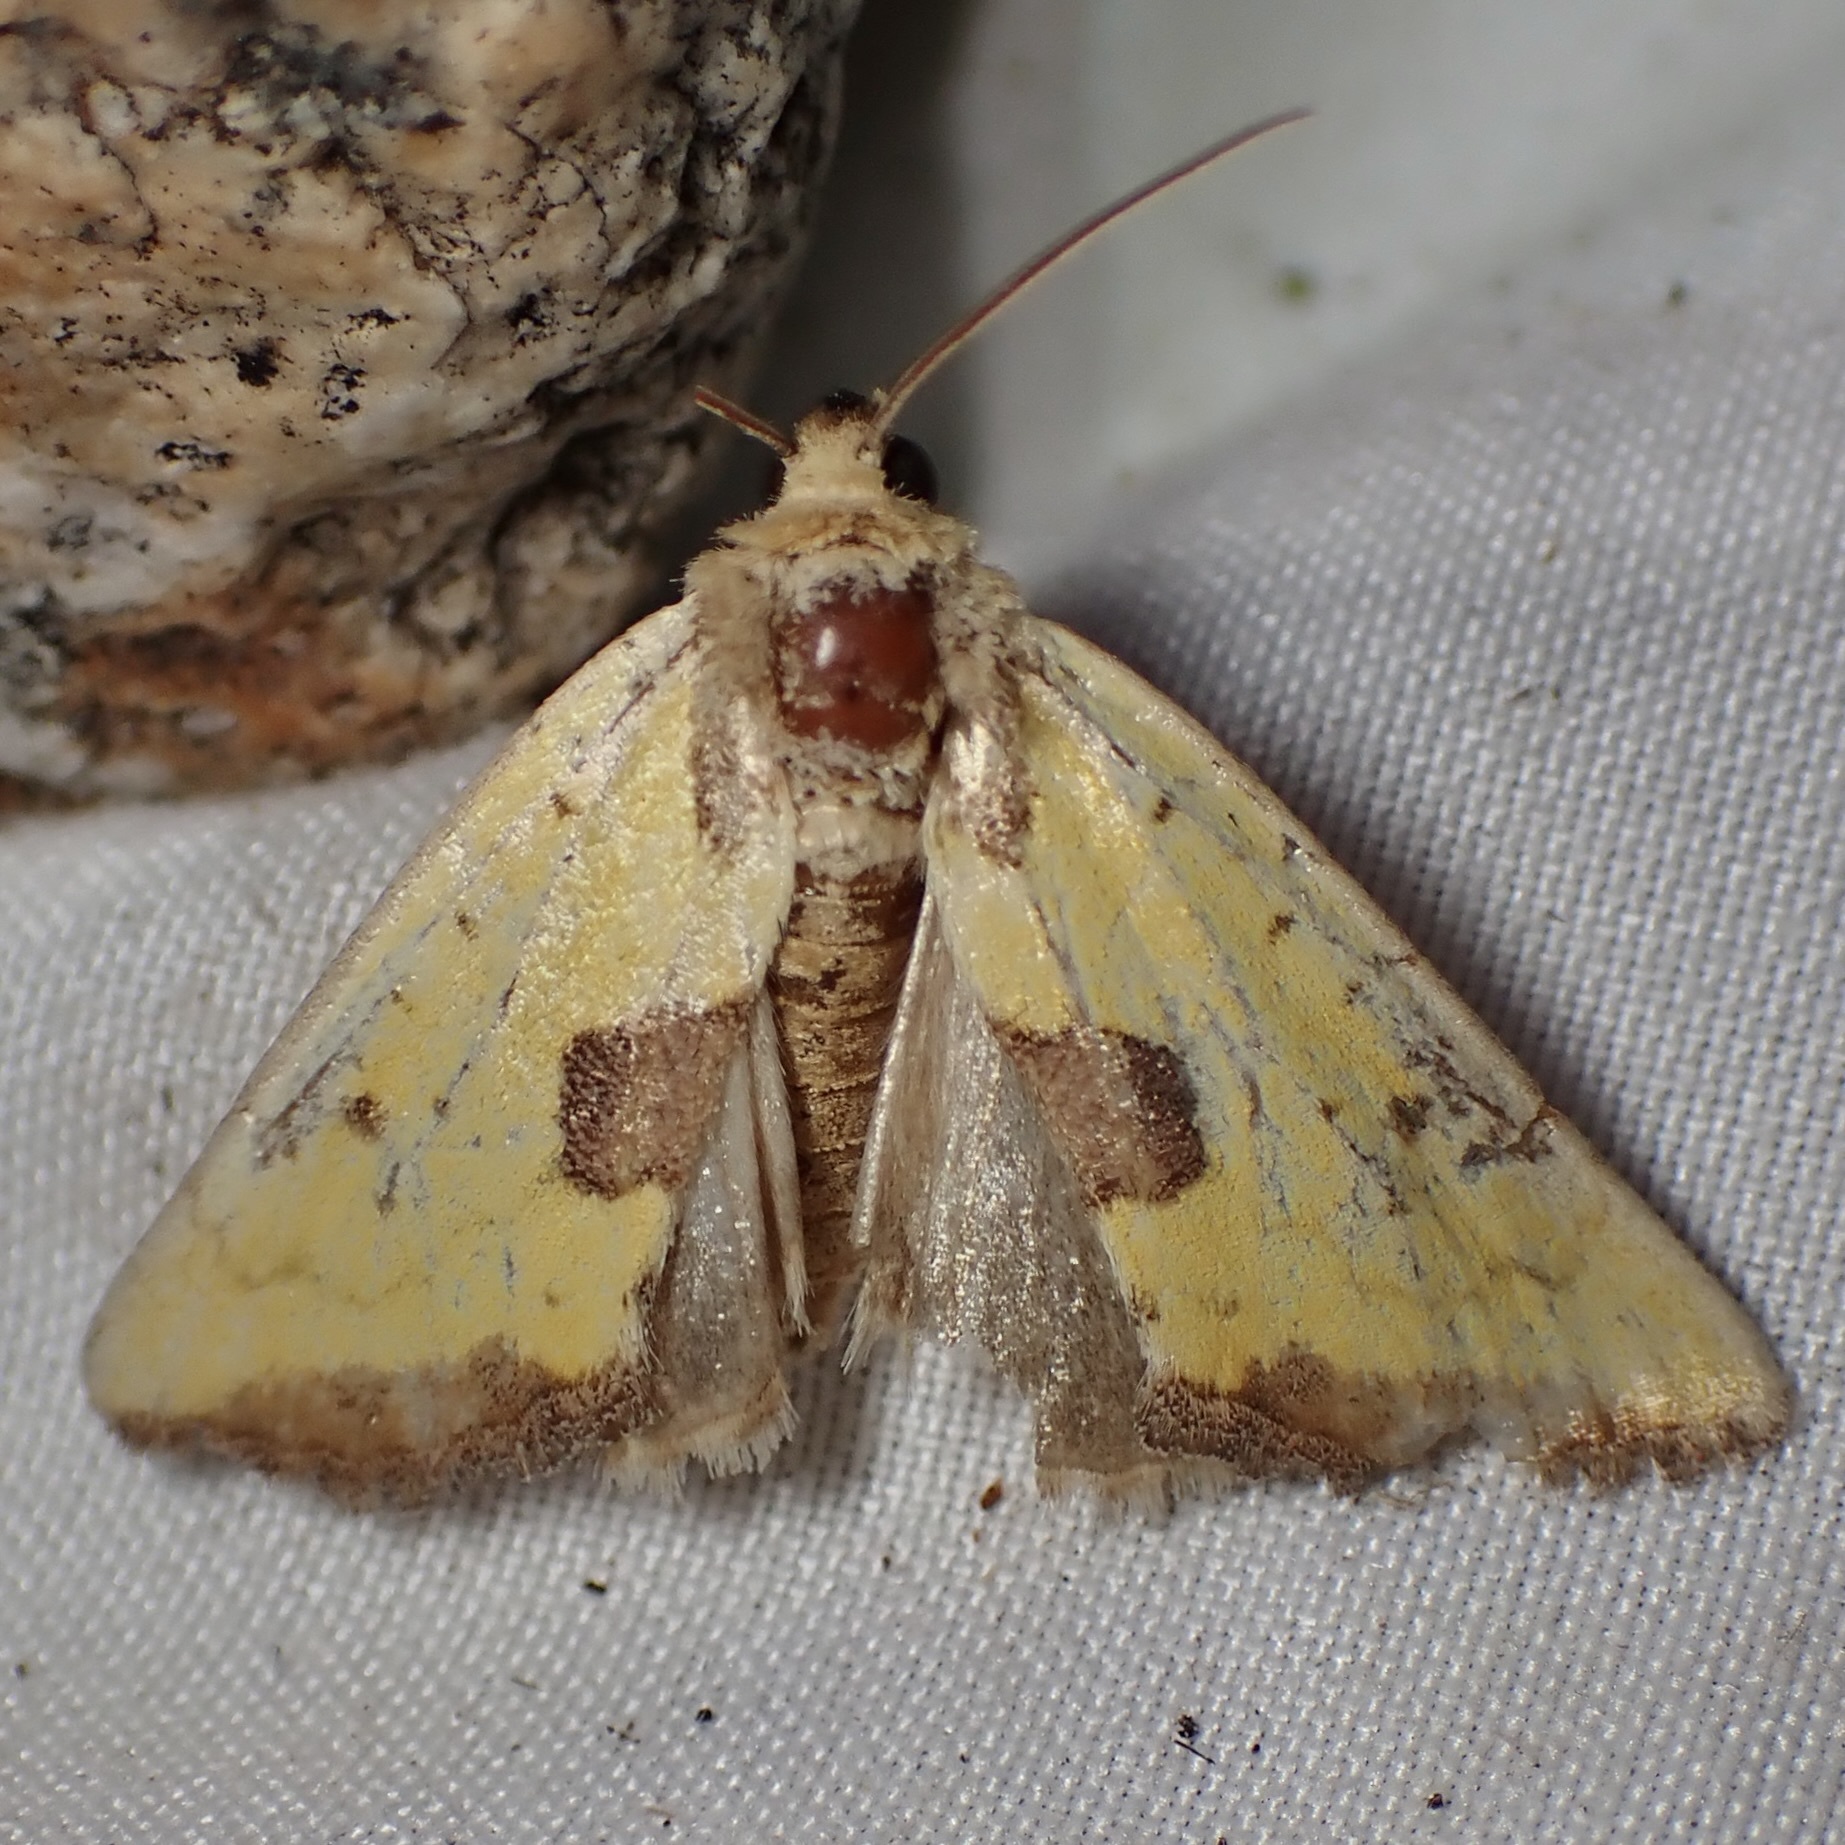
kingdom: Animalia
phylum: Arthropoda
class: Insecta
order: Lepidoptera
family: Noctuidae
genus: Stiria
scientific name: Stiria sulphurea
